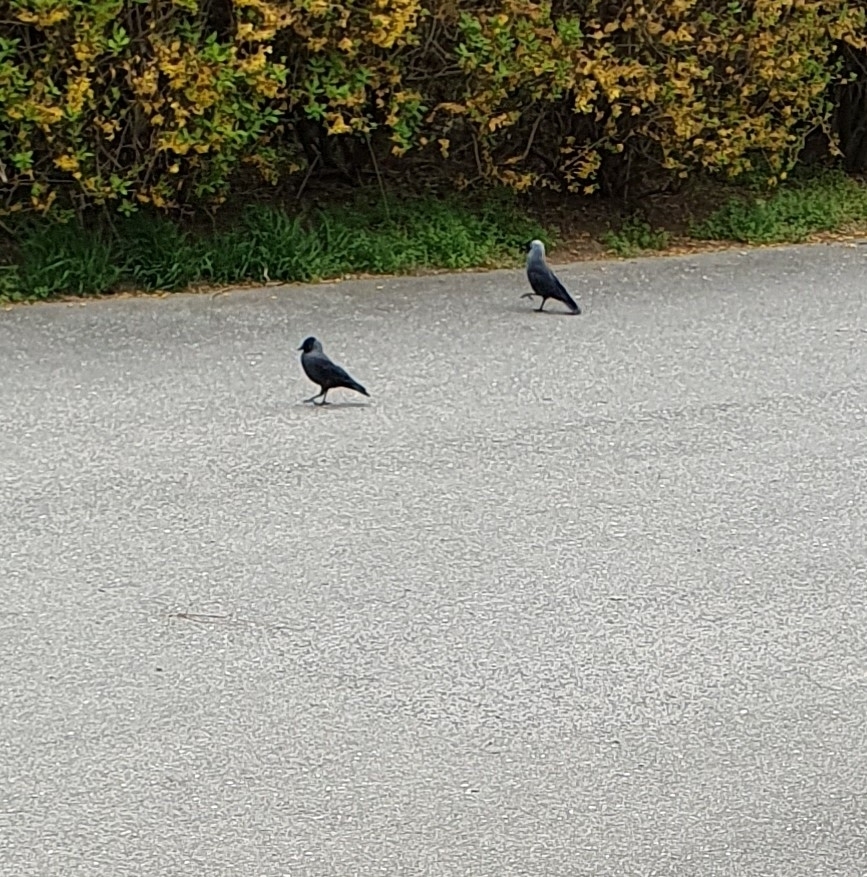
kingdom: Animalia
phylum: Chordata
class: Aves
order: Passeriformes
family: Corvidae
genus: Coloeus
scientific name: Coloeus monedula
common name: Western jackdaw
